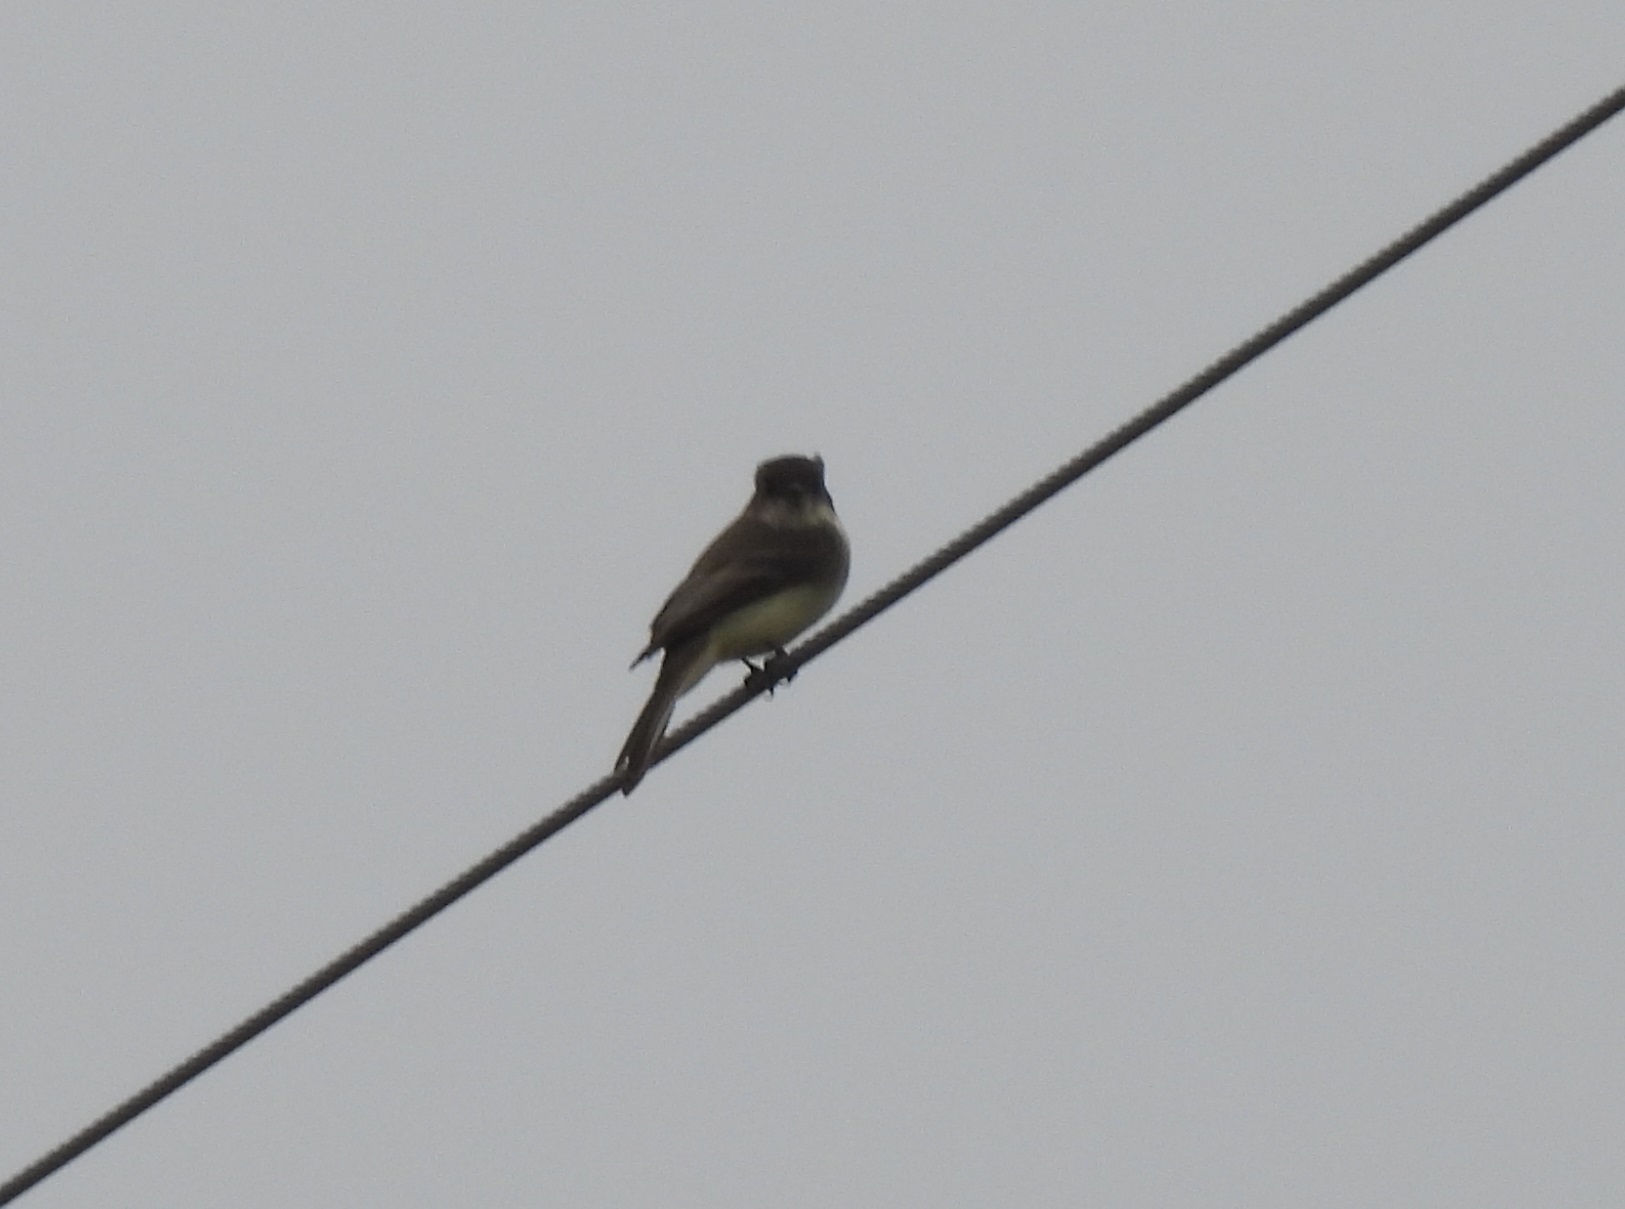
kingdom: Animalia
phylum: Chordata
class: Aves
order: Passeriformes
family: Tyrannidae
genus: Sayornis
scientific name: Sayornis phoebe
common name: Eastern phoebe
